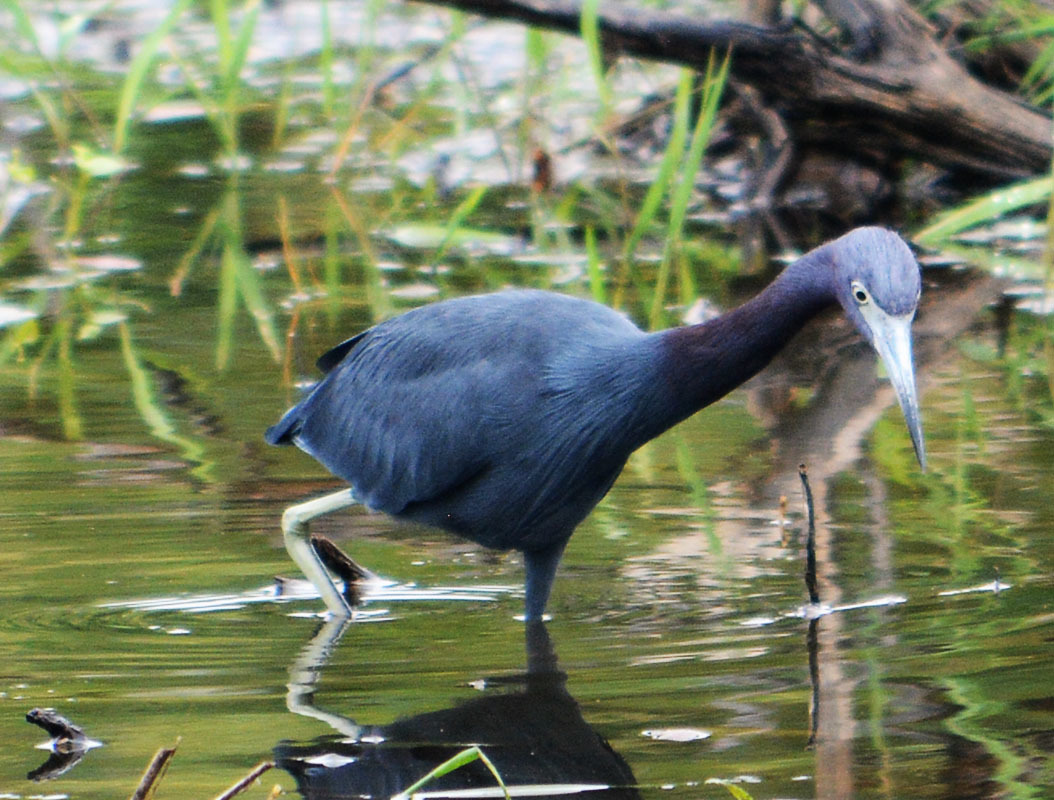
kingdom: Animalia
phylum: Chordata
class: Aves
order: Pelecaniformes
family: Ardeidae
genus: Egretta
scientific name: Egretta caerulea
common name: Little blue heron
